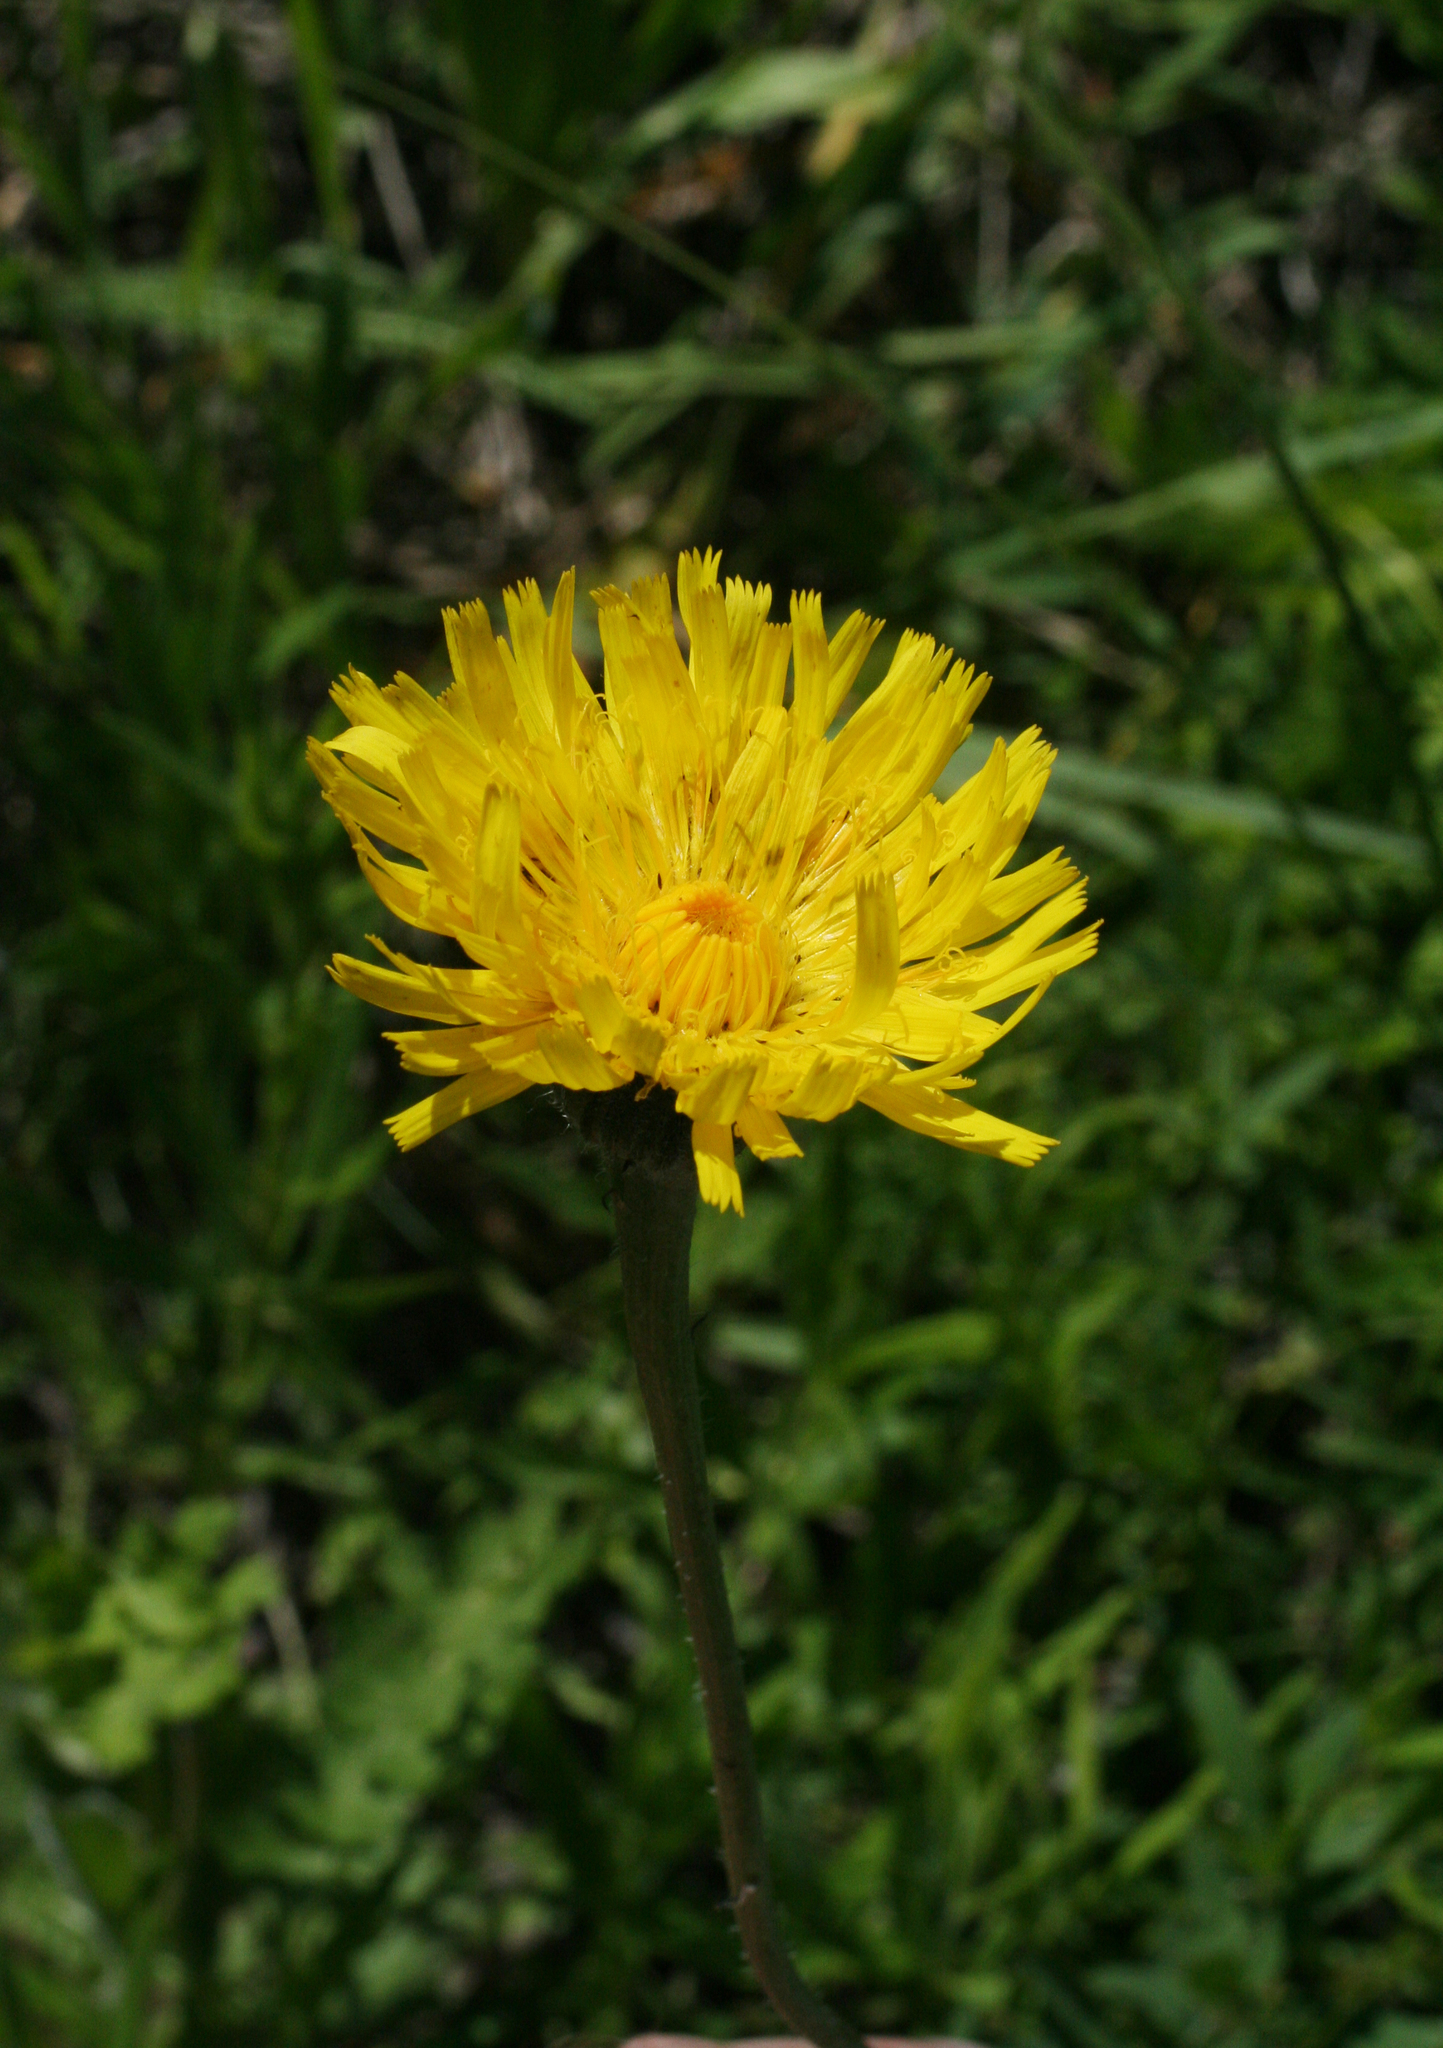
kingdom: Plantae
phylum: Tracheophyta
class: Magnoliopsida
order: Asterales
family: Asteraceae
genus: Trommsdorffia
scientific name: Trommsdorffia maculata
